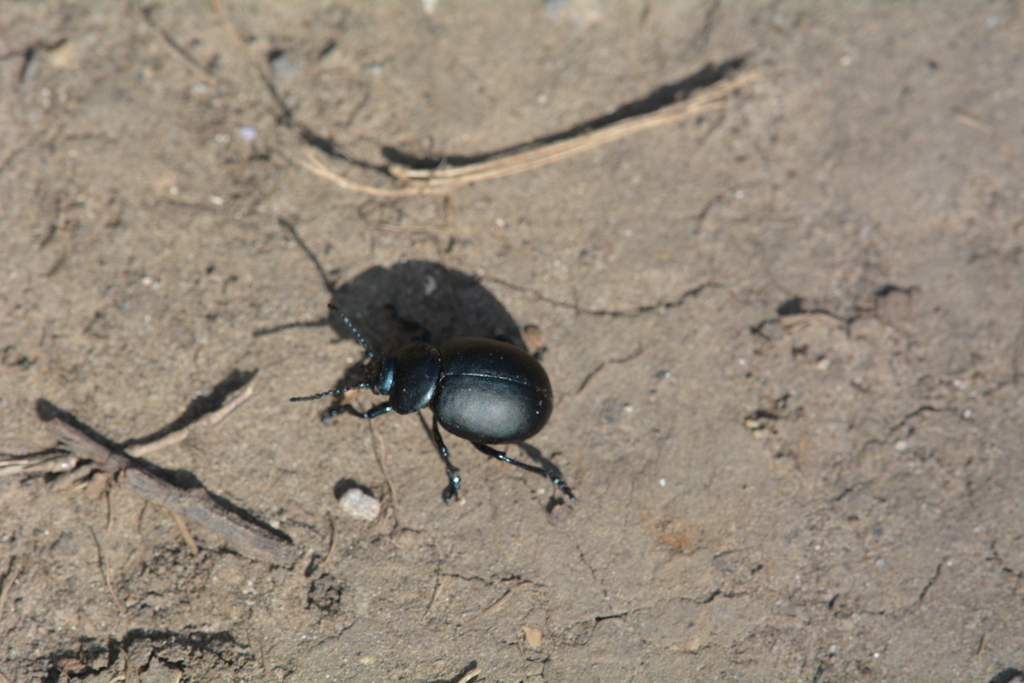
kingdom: Animalia
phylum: Arthropoda
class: Insecta
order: Coleoptera
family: Chrysomelidae
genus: Timarcha
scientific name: Timarcha tenebricosa
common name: Bloody-nosed beetle
